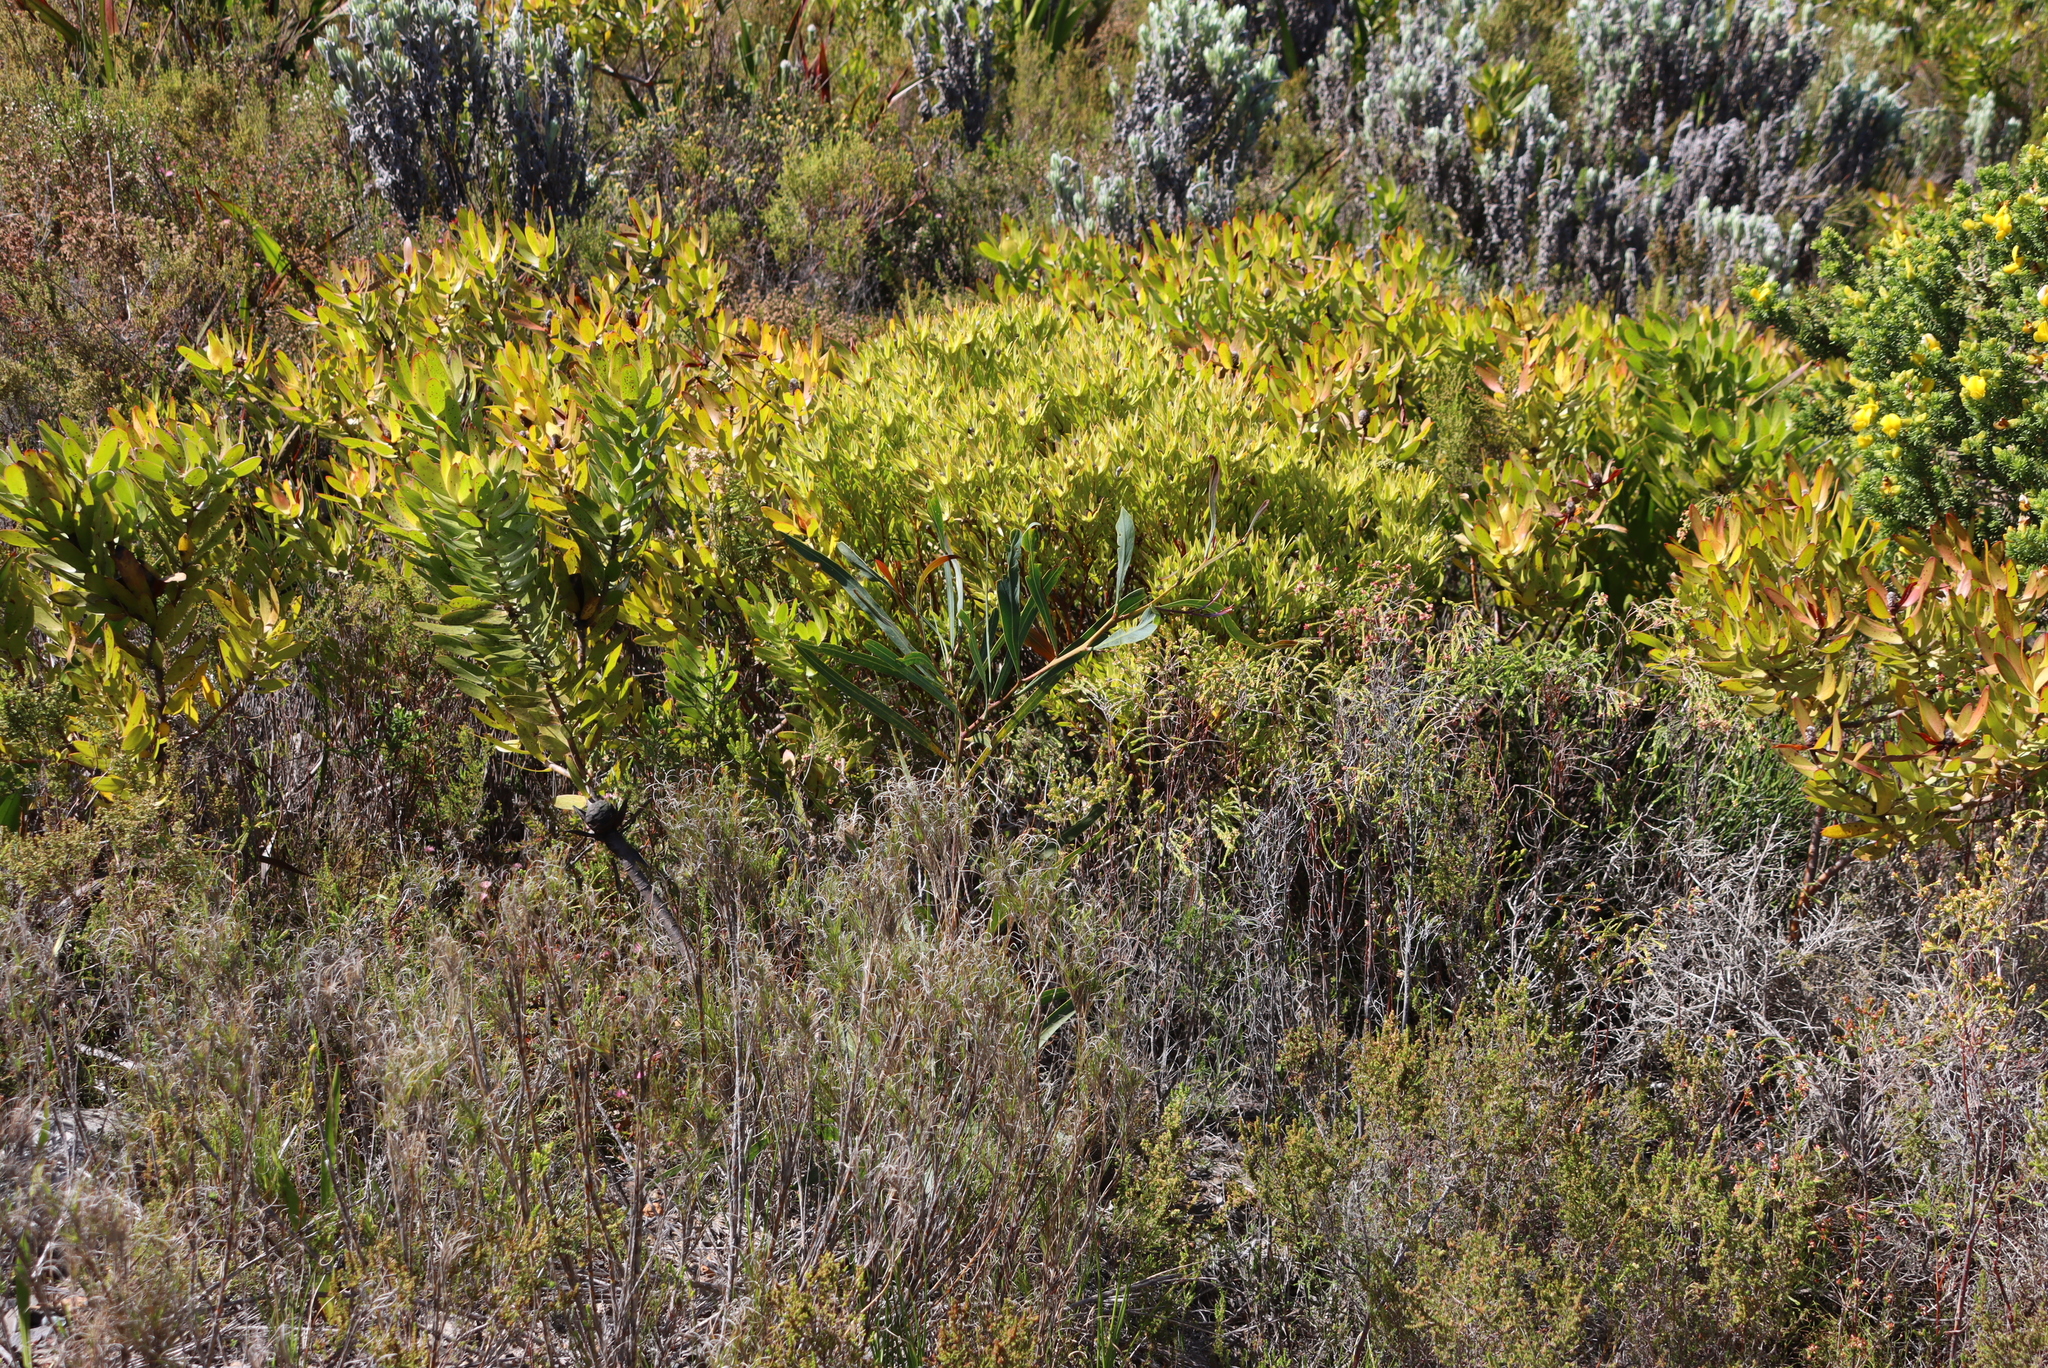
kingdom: Plantae
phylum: Tracheophyta
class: Magnoliopsida
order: Proteales
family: Proteaceae
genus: Leucadendron
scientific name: Leucadendron xanthoconus
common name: Sickle-leaf conebush
